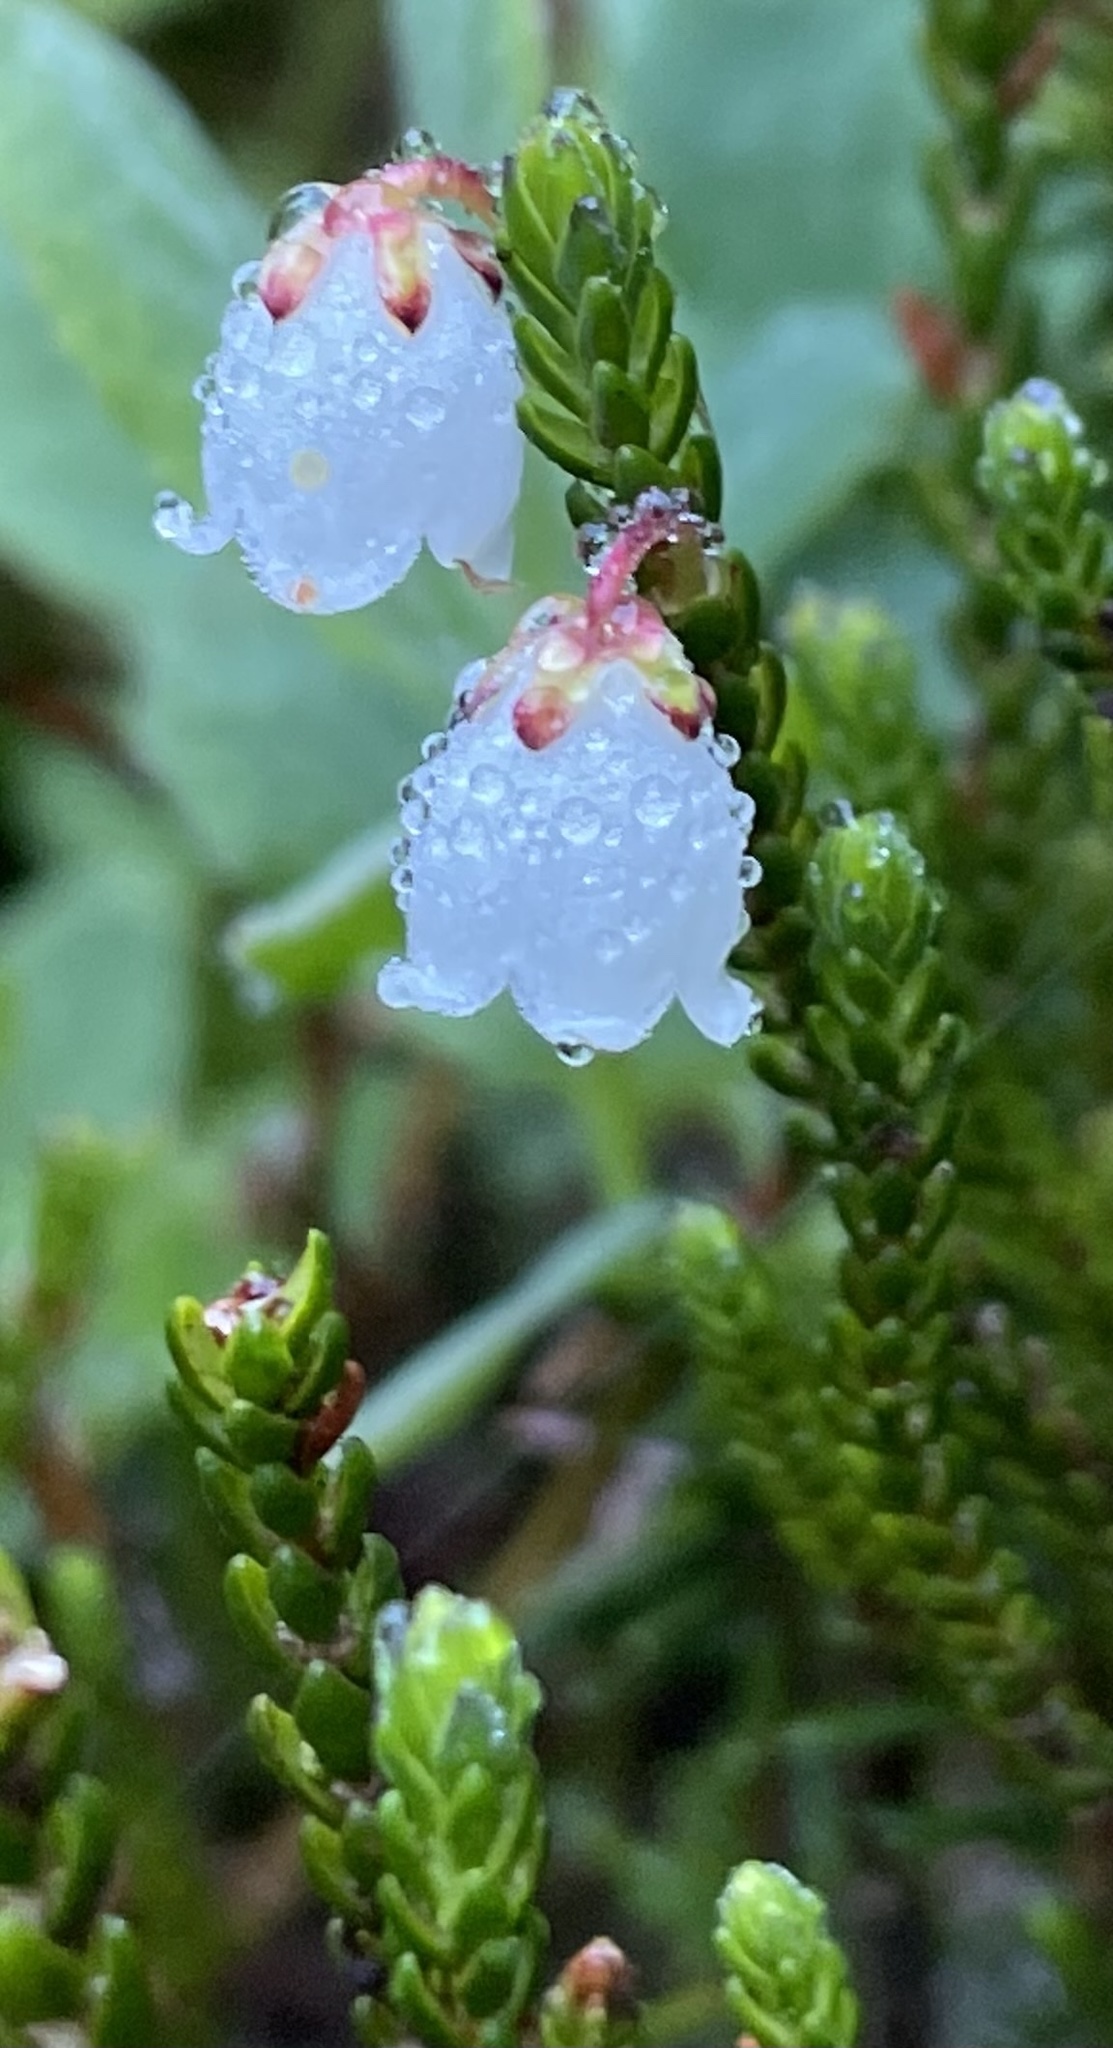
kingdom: Plantae
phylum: Tracheophyta
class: Magnoliopsida
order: Ericales
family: Ericaceae
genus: Cassiope
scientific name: Cassiope mertensiana
